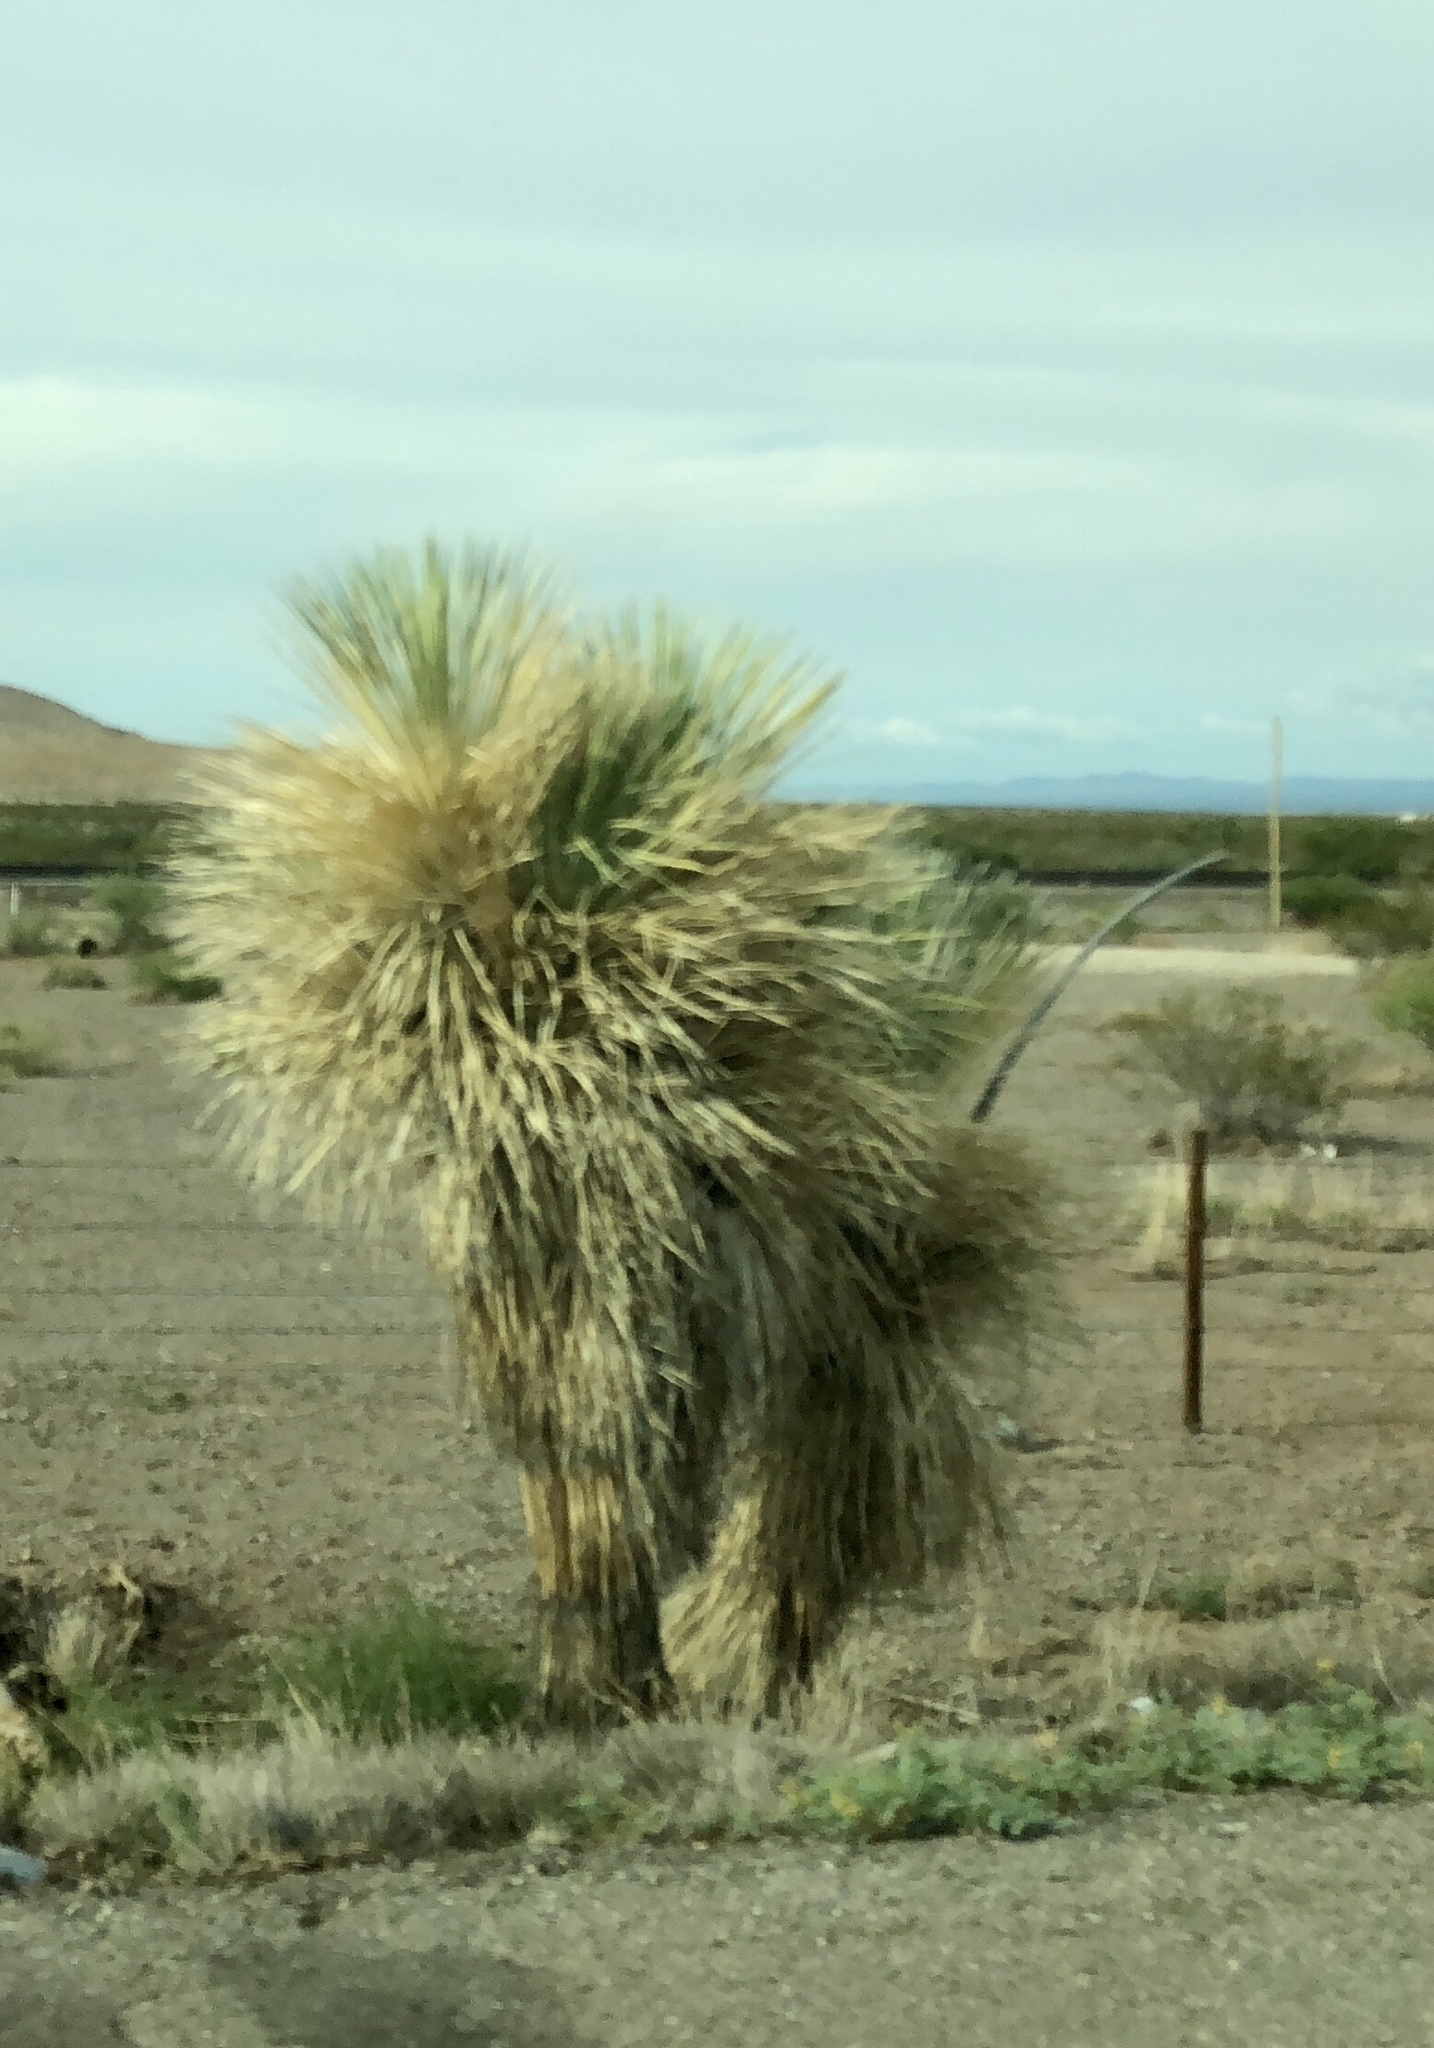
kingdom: Plantae
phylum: Tracheophyta
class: Liliopsida
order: Asparagales
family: Asparagaceae
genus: Yucca
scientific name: Yucca elata
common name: Palmella
